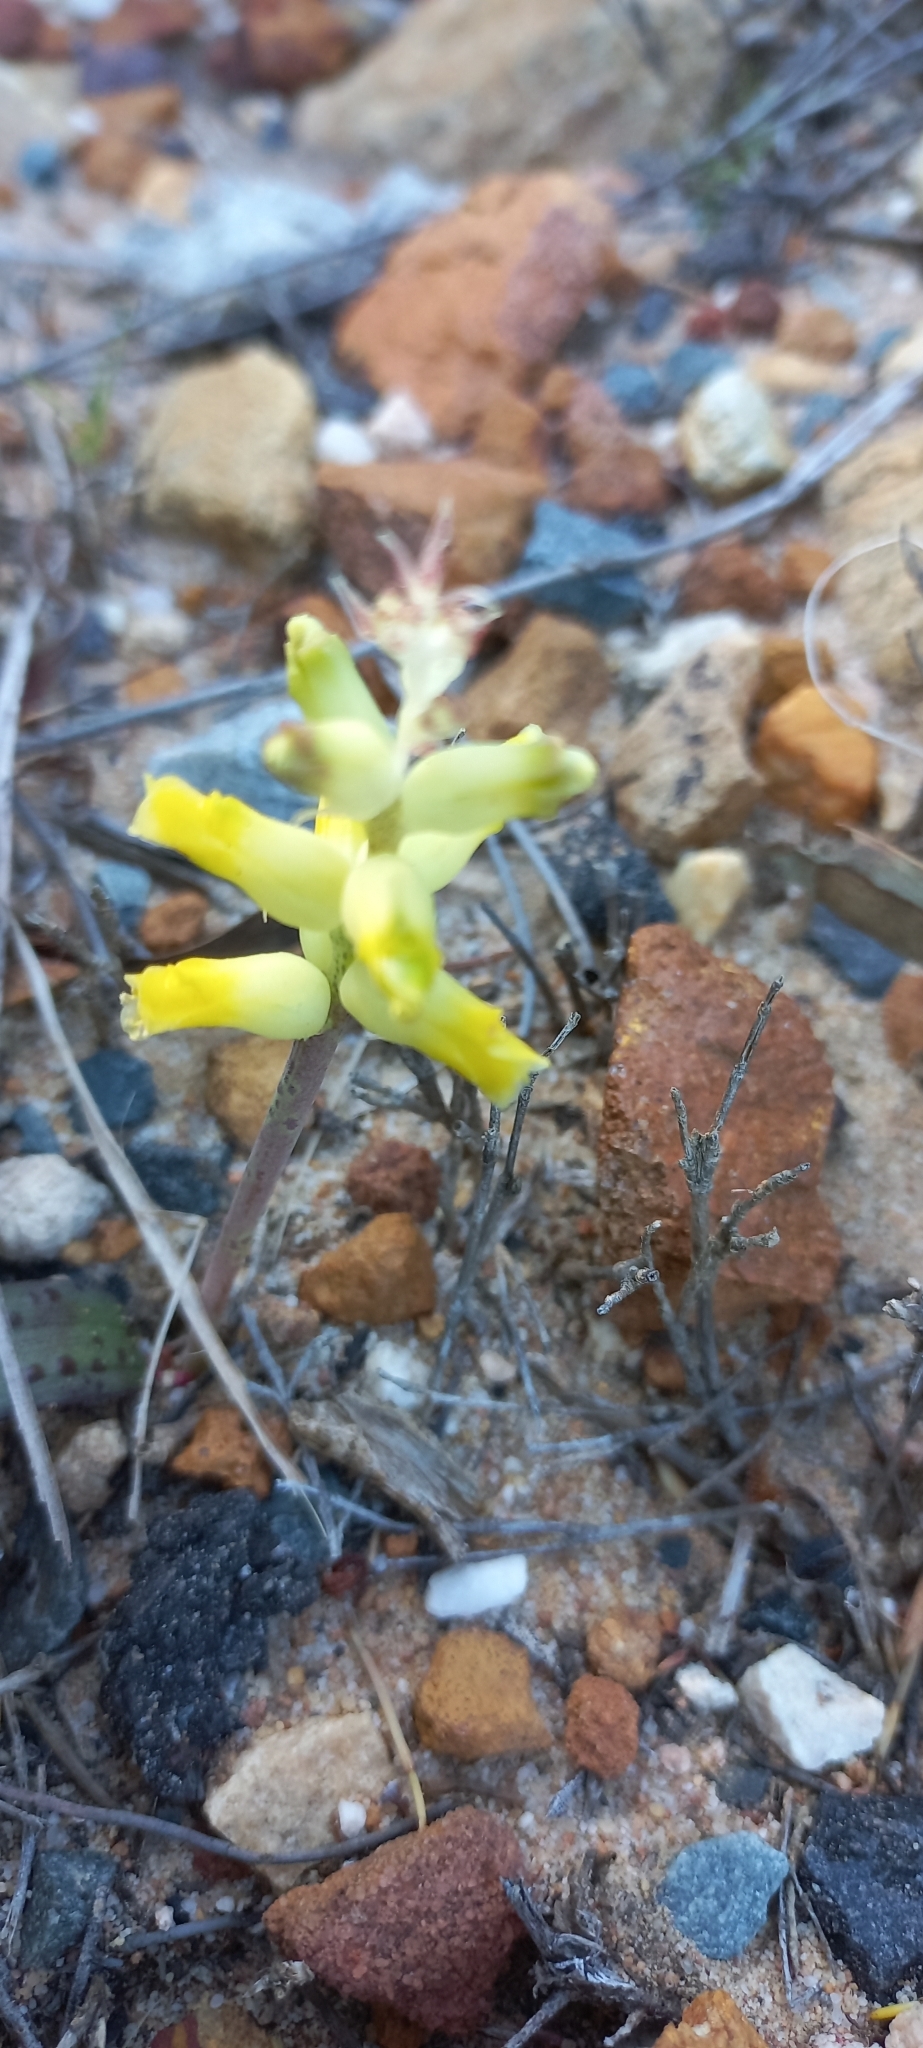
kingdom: Plantae
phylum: Tracheophyta
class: Liliopsida
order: Asparagales
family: Asparagaceae
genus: Lachenalia
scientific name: Lachenalia lutea
